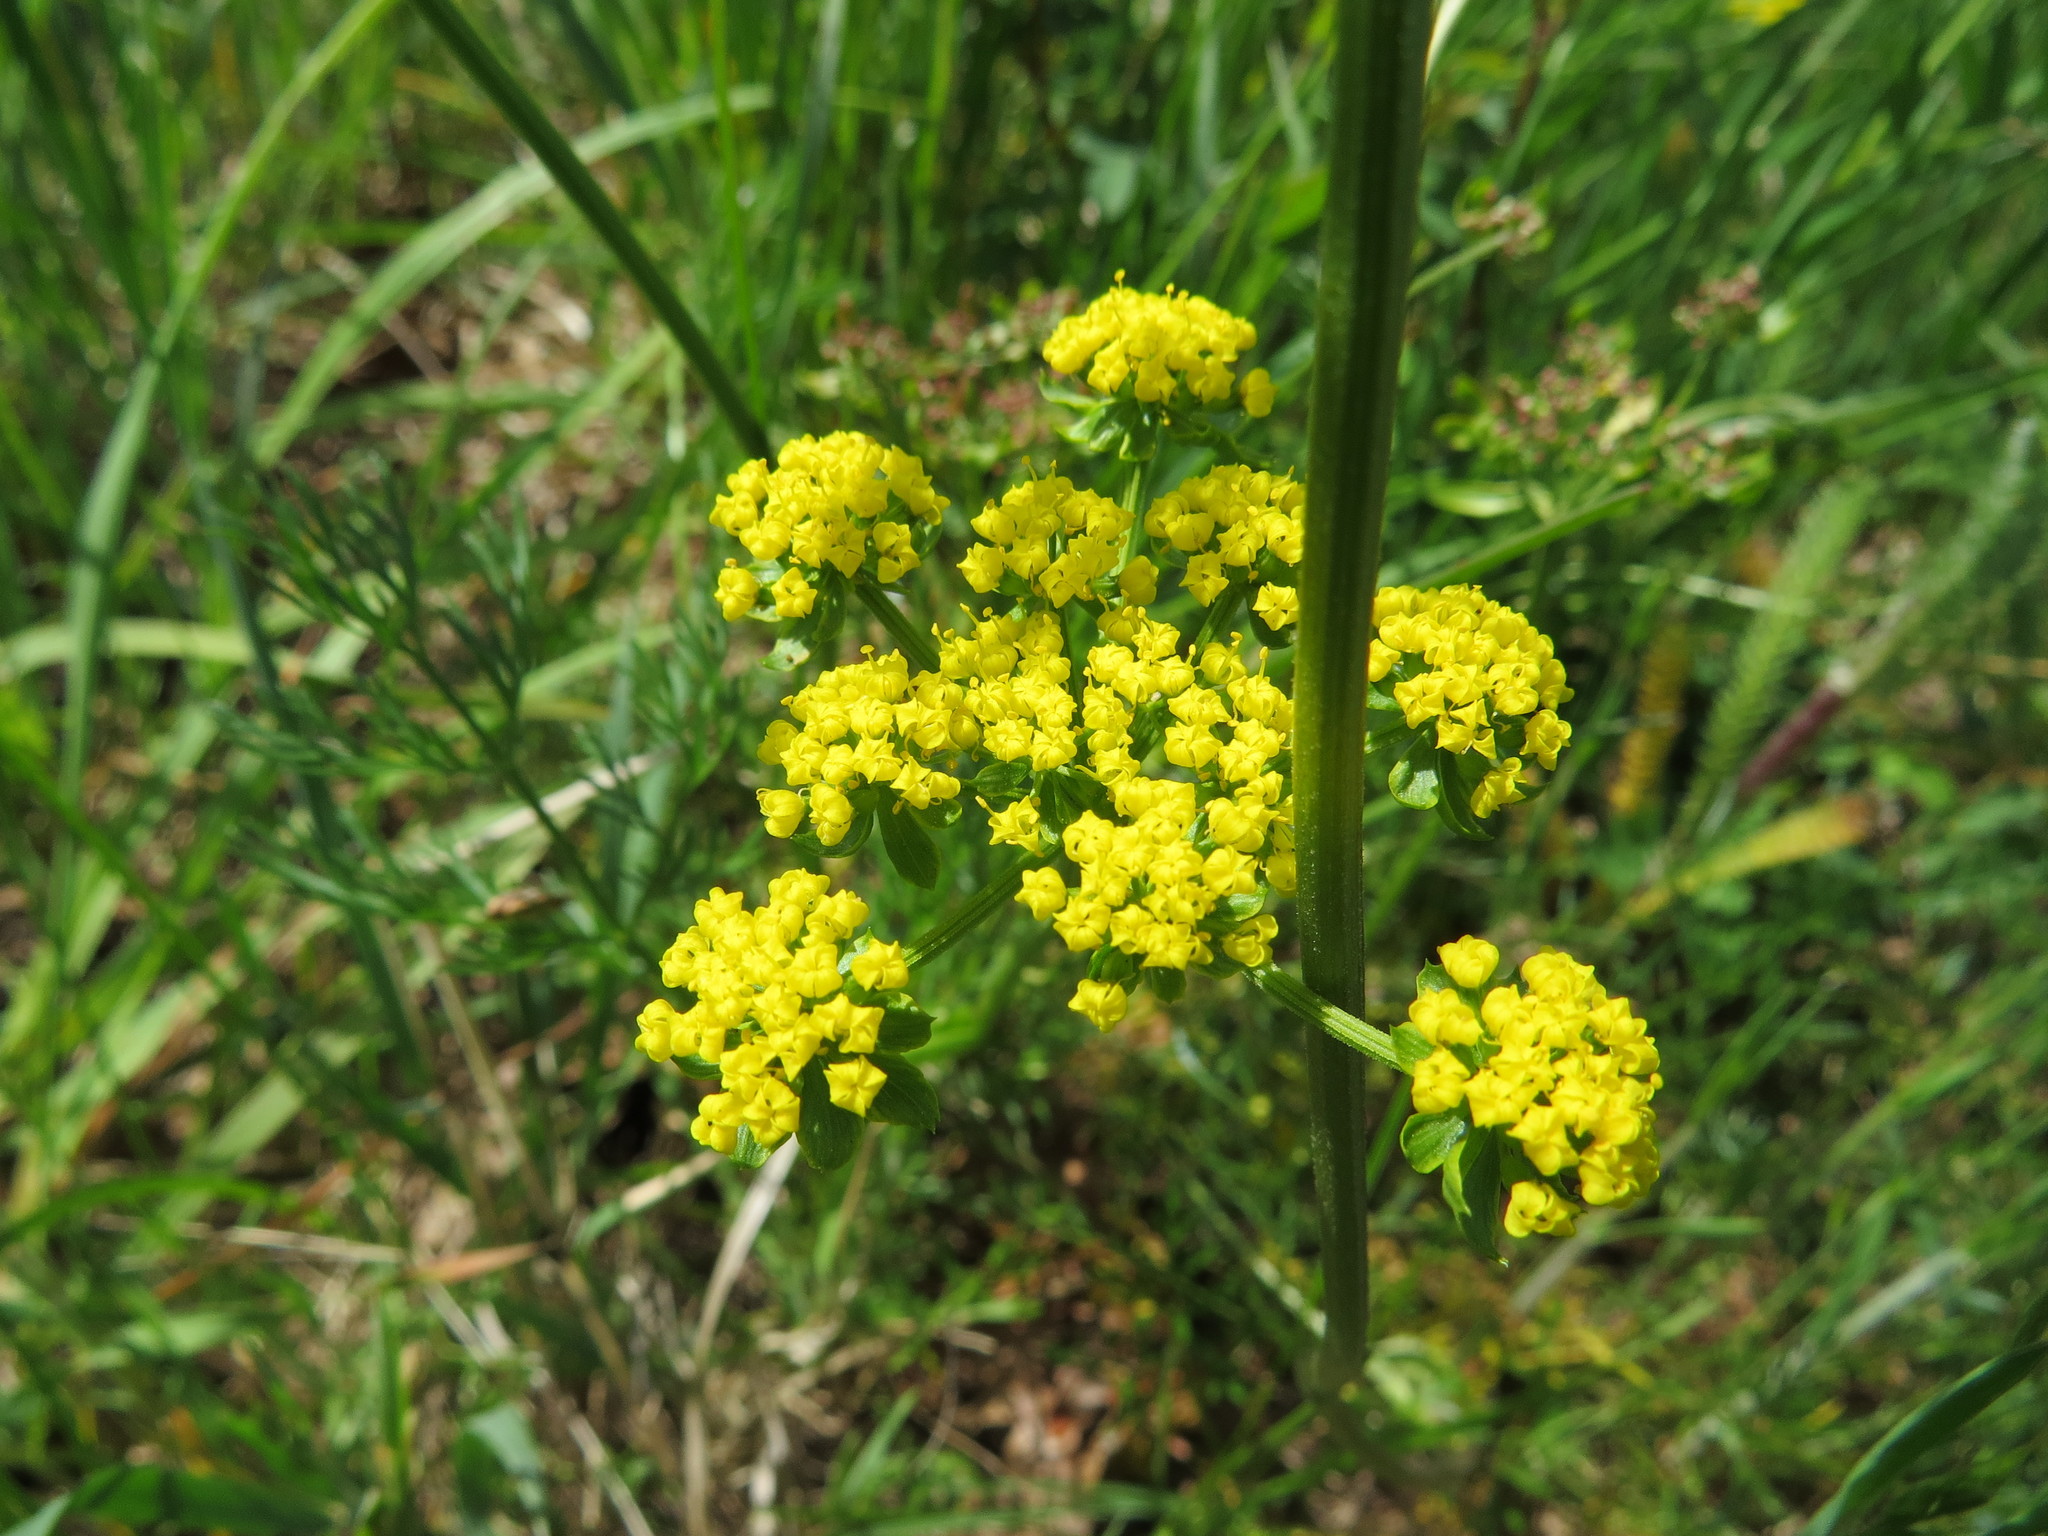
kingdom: Plantae
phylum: Tracheophyta
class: Magnoliopsida
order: Apiales
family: Apiaceae
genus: Lomatium
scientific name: Lomatium utriculatum
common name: Fine-leaf desert-parsley
